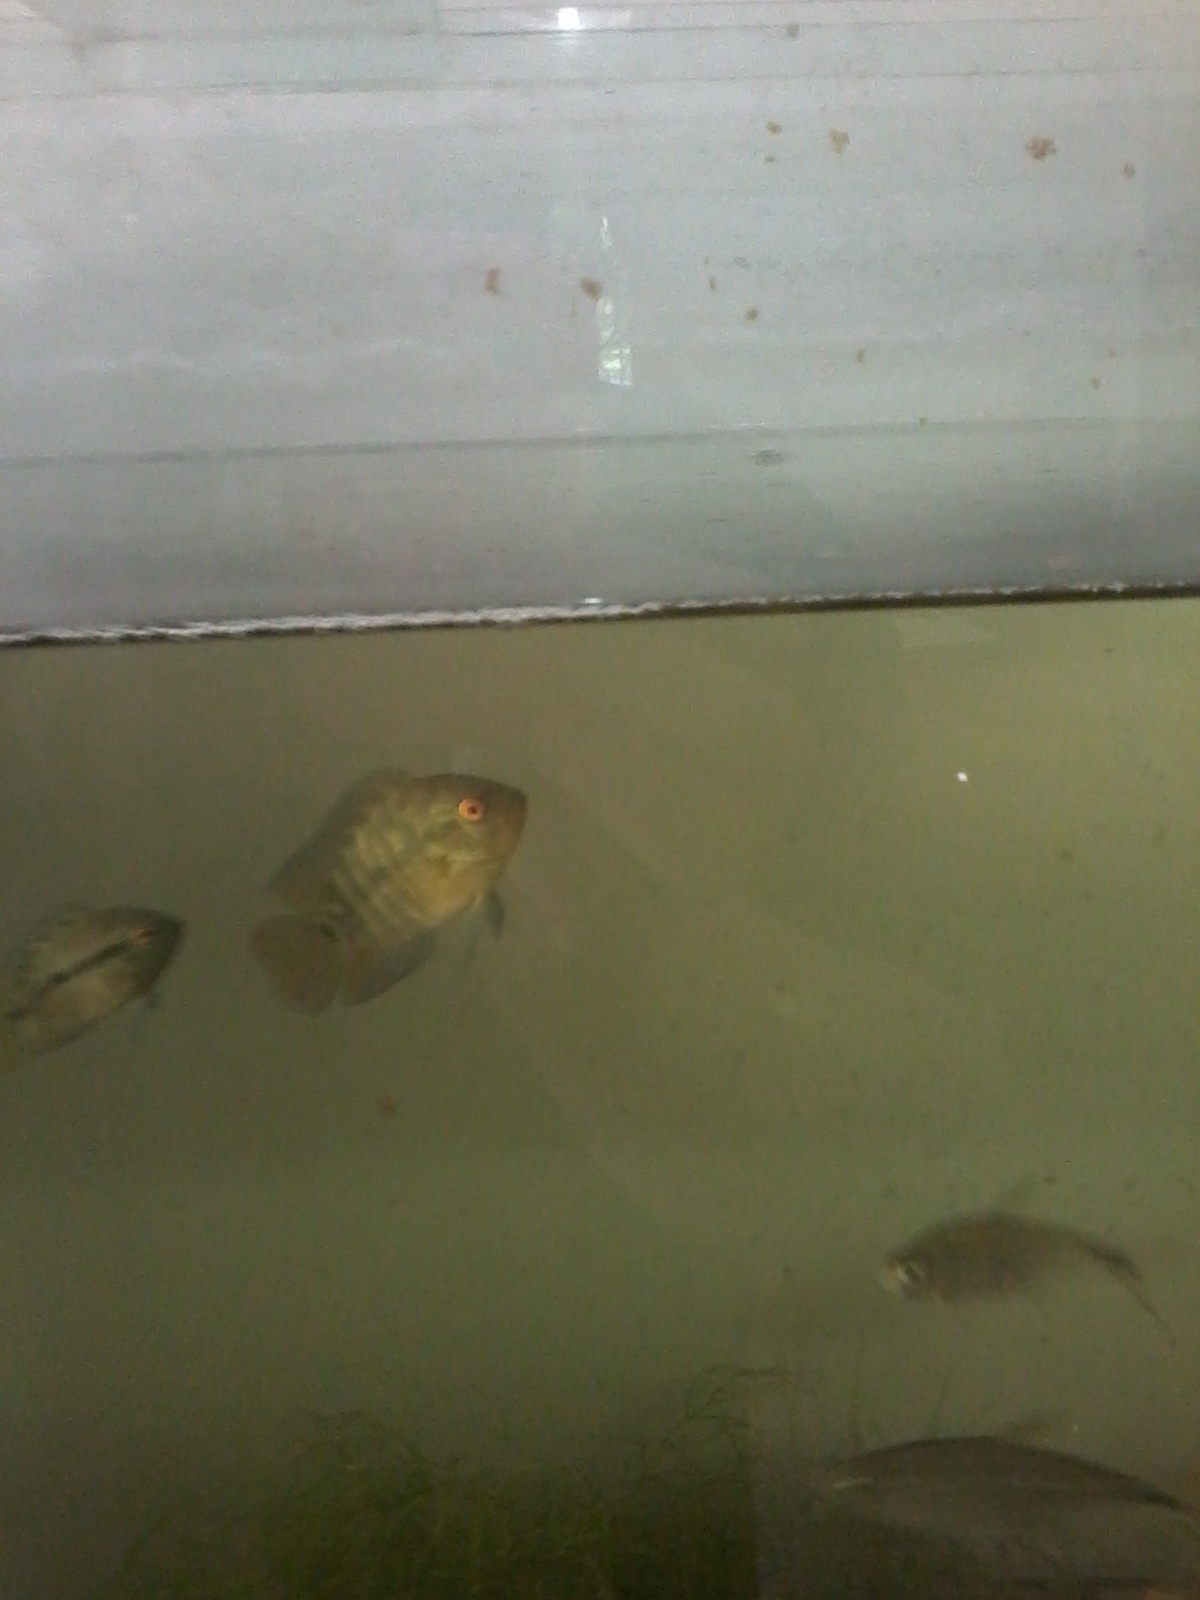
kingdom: Animalia
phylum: Chordata
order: Perciformes
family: Cichlidae
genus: Australoheros
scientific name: Australoheros facetus
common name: Chameleon cichlid
